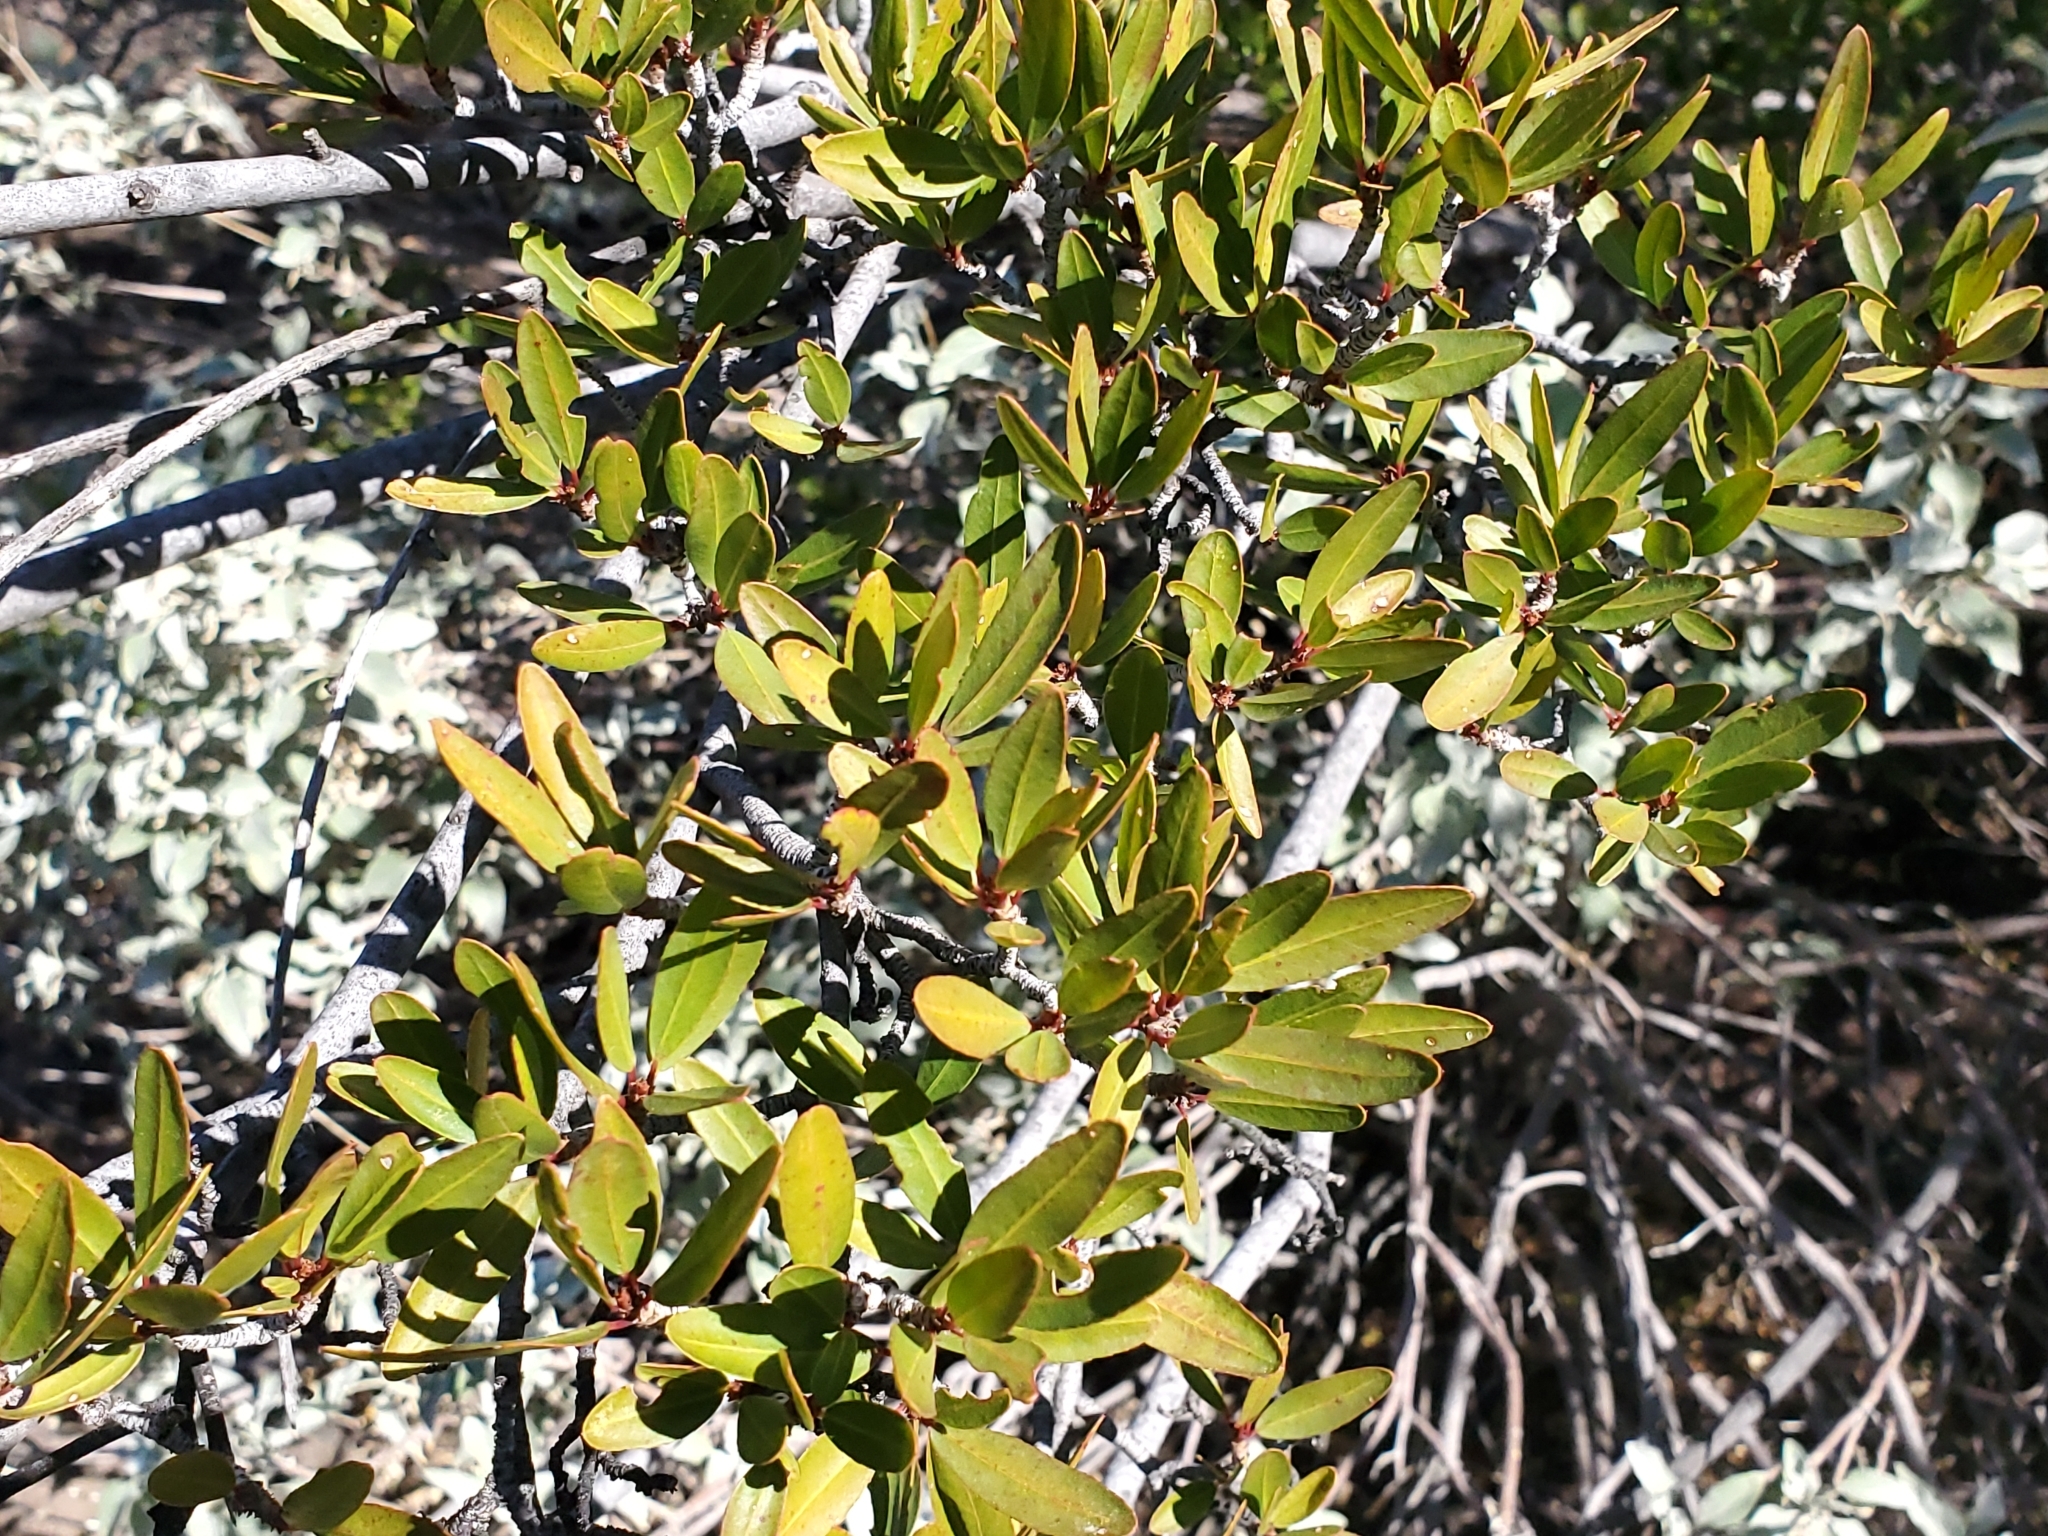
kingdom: Plantae
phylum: Tracheophyta
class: Magnoliopsida
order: Malpighiales
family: Euphorbiaceae
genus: Pleradenophora
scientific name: Pleradenophora bilocularis
